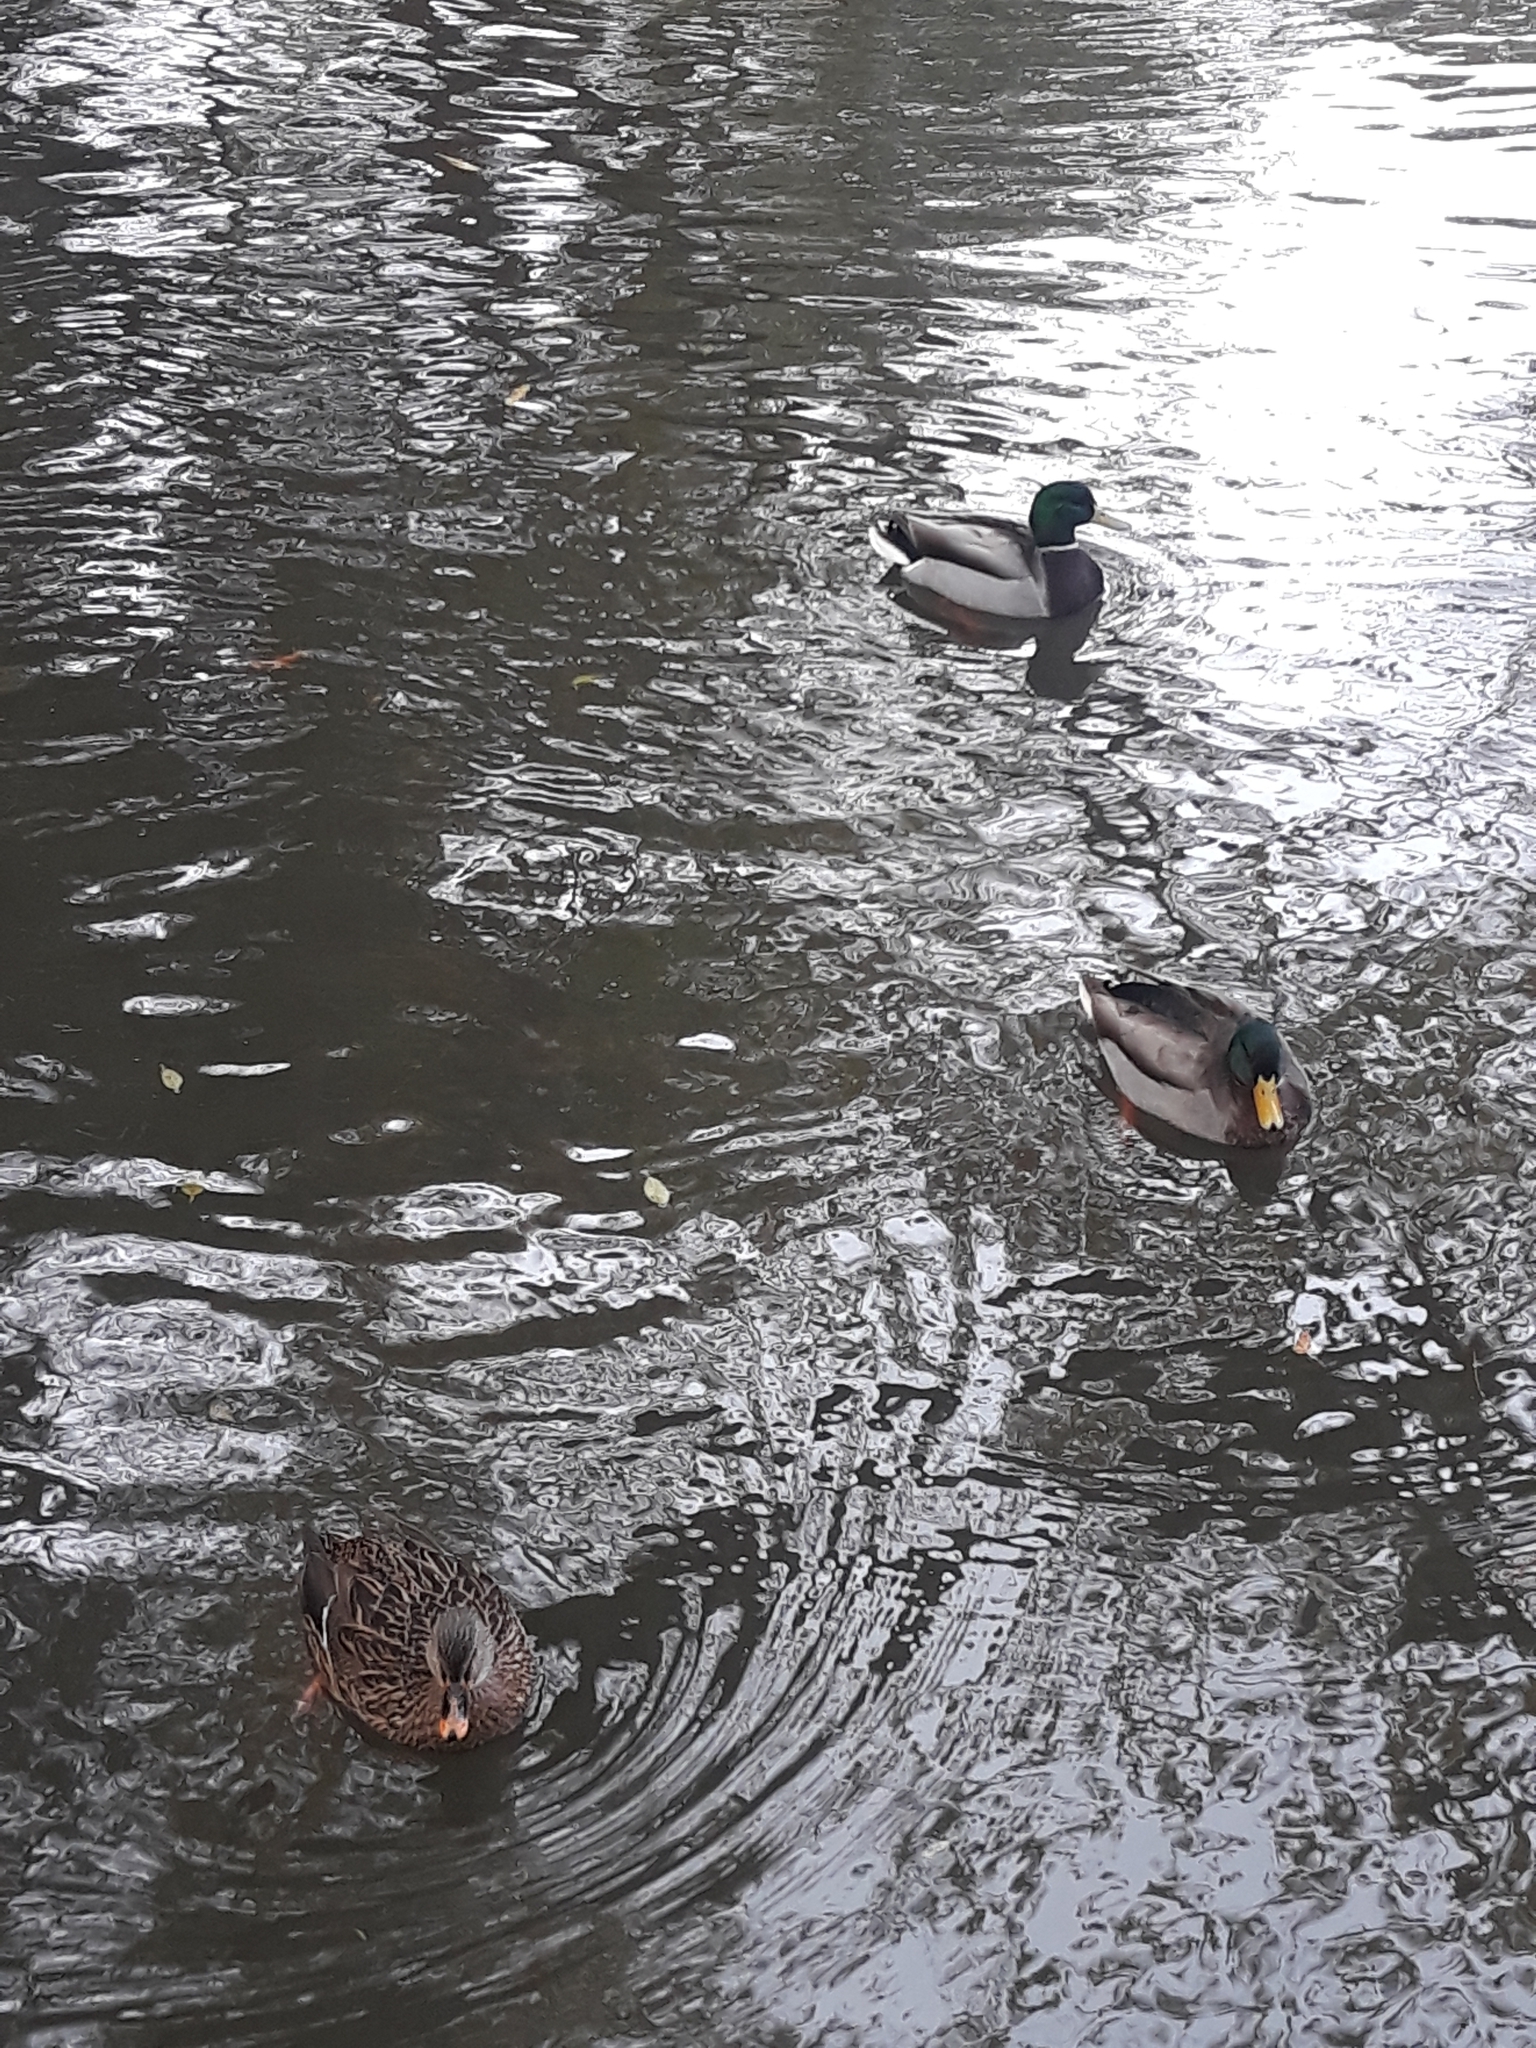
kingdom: Animalia
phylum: Chordata
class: Aves
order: Anseriformes
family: Anatidae
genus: Anas
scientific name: Anas platyrhynchos
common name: Mallard
